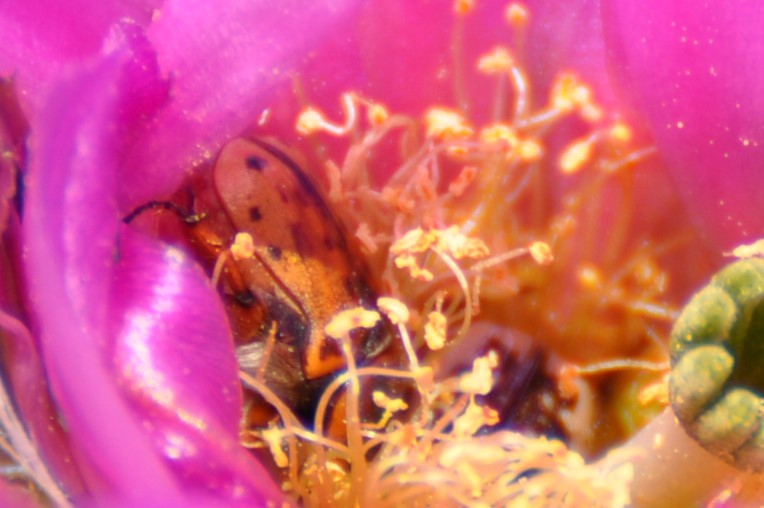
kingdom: Animalia
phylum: Arthropoda
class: Insecta
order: Coleoptera
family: Scarabaeidae
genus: Euphoria
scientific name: Euphoria kernii
